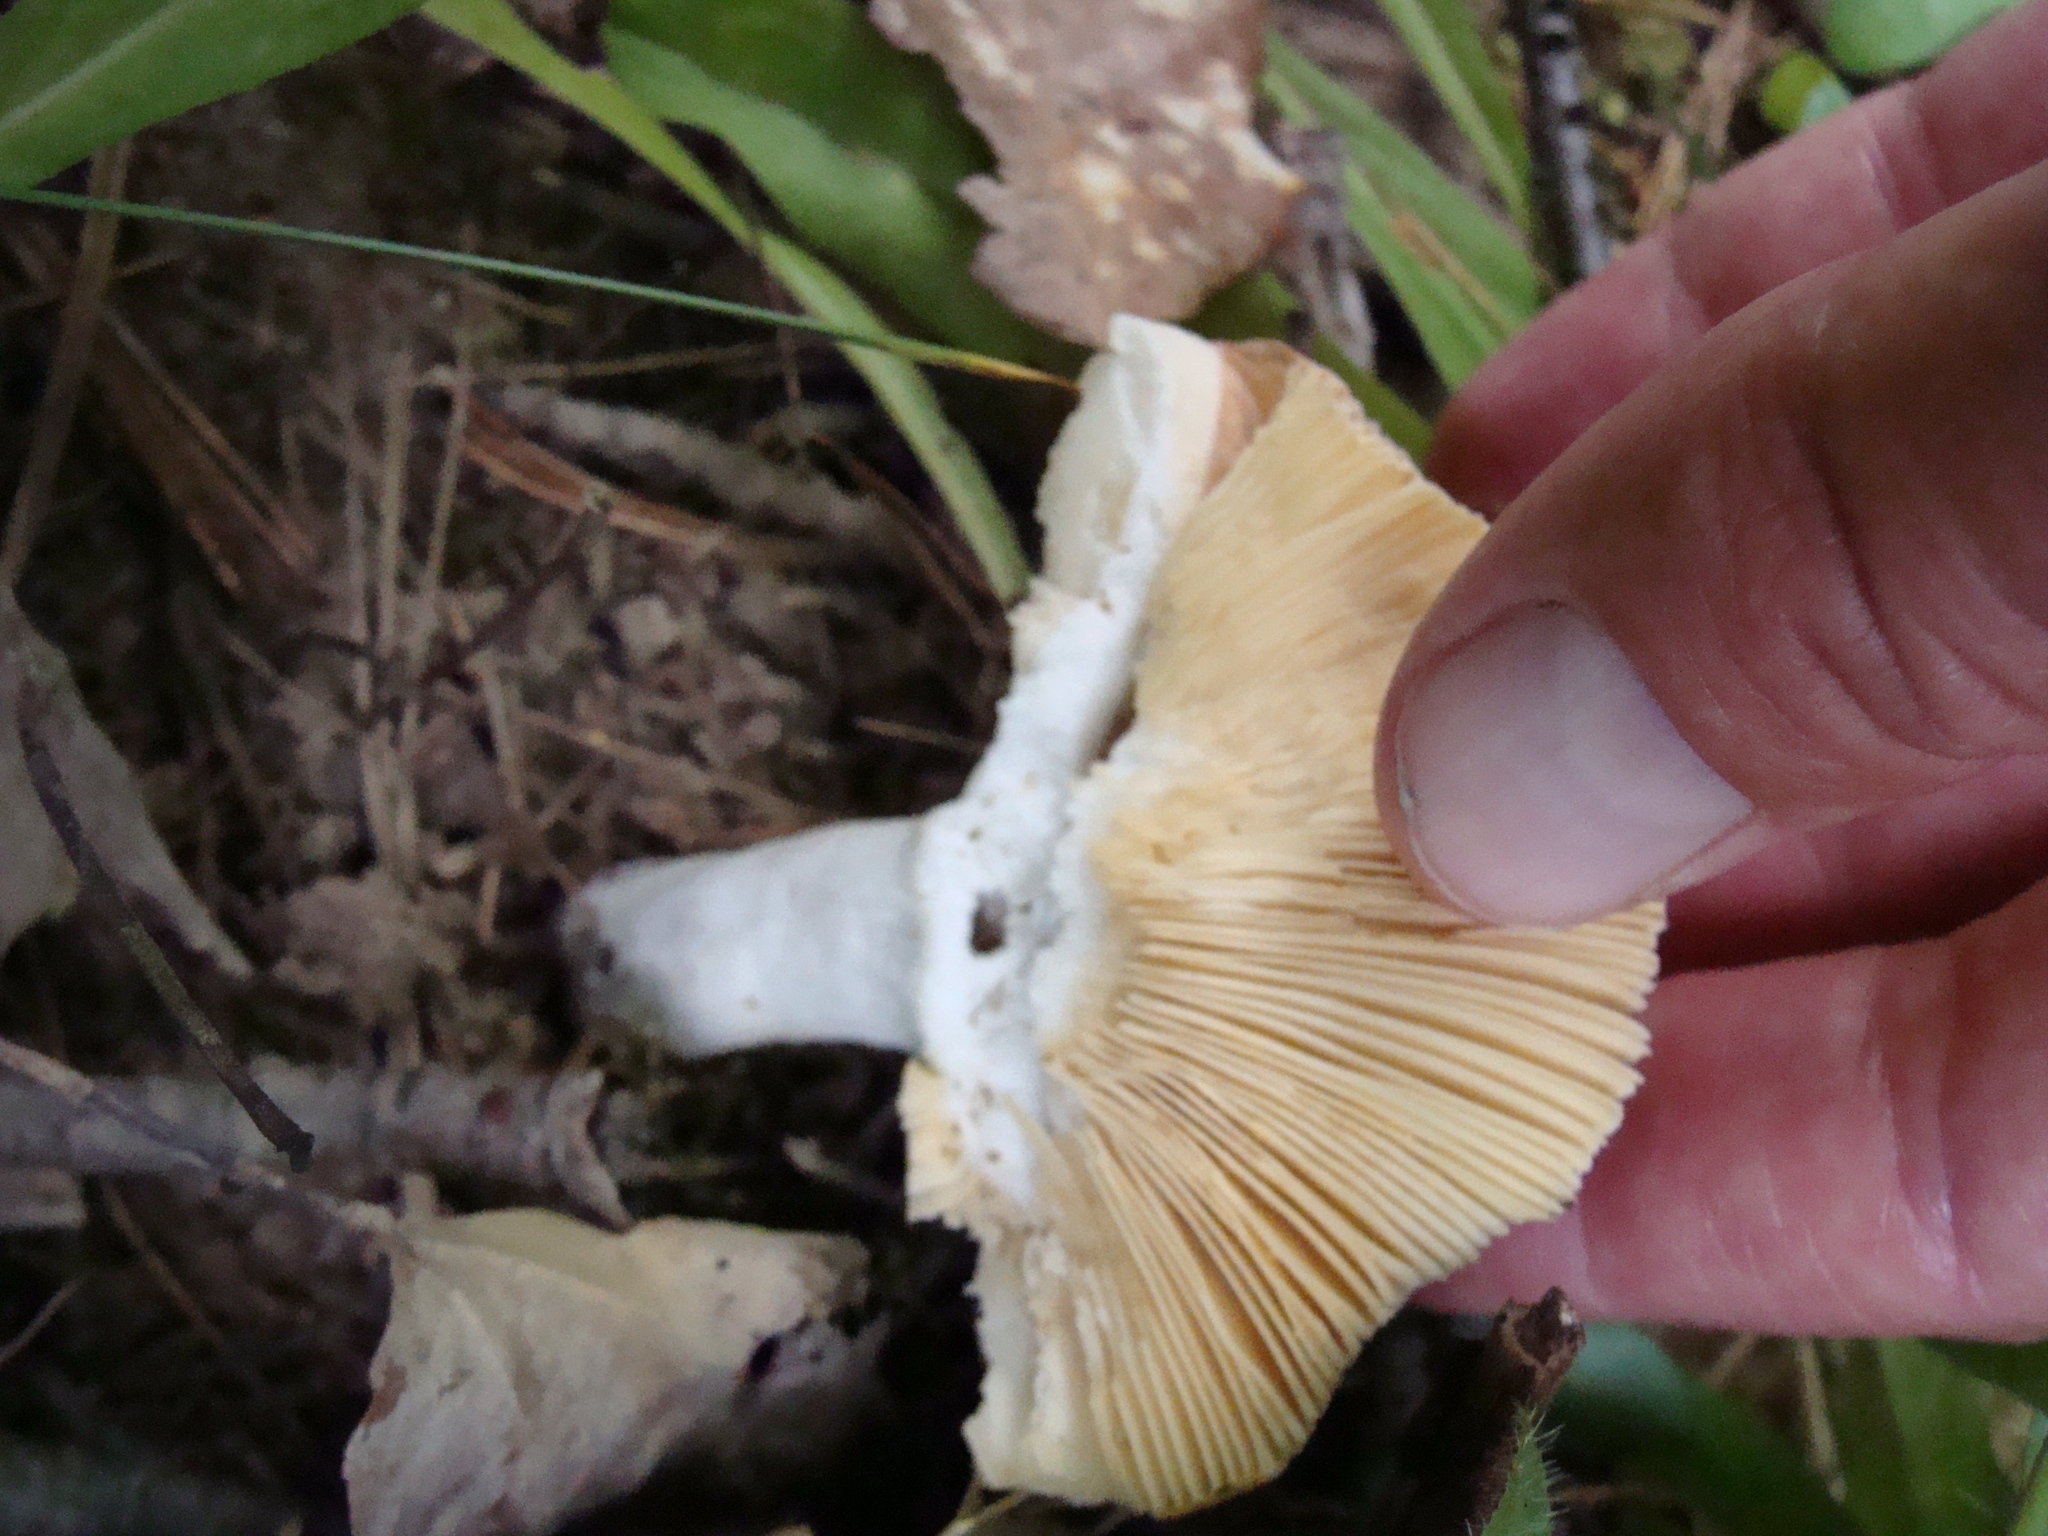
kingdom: Fungi
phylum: Basidiomycota
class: Agaricomycetes
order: Russulales
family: Russulaceae
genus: Russula
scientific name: Russula
